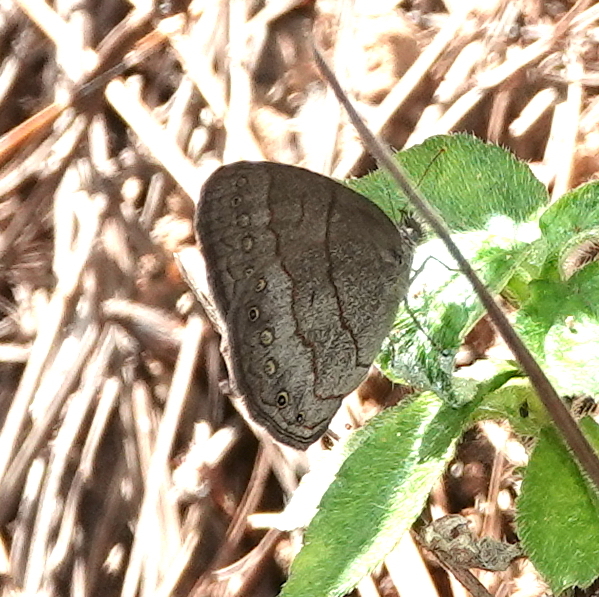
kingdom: Animalia
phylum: Arthropoda
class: Insecta
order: Lepidoptera
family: Nymphalidae
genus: Hermeuptychia
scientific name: Hermeuptychia hermes
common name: Hermes satyr
